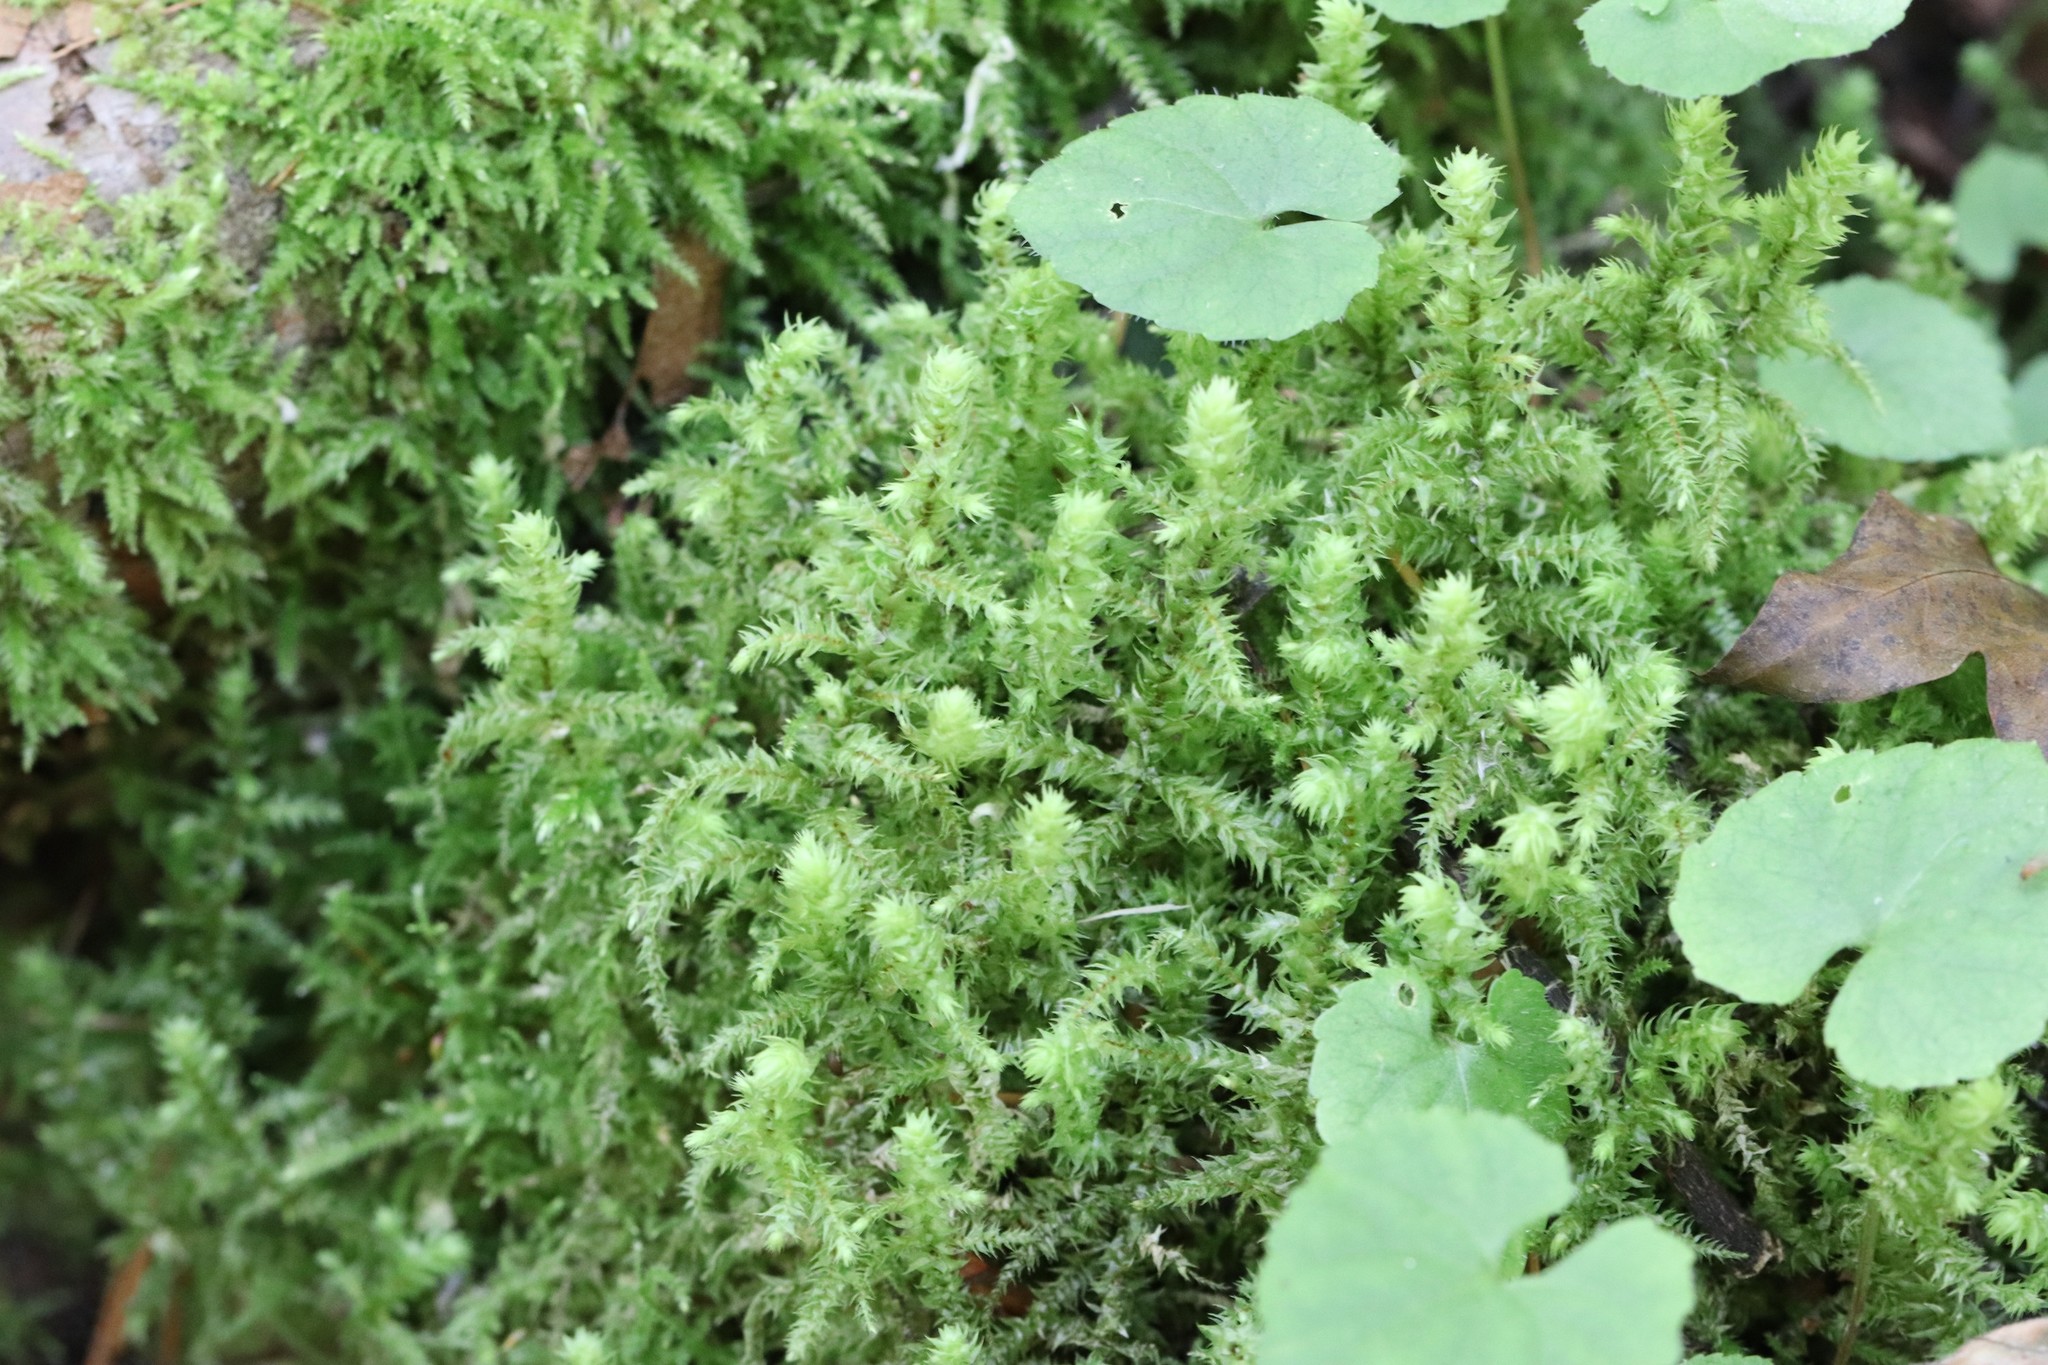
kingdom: Plantae
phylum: Bryophyta
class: Bryopsida
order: Hypnales
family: Hylocomiaceae
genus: Hylocomiadelphus
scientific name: Hylocomiadelphus triquetrus
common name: Rough goose neck moss
